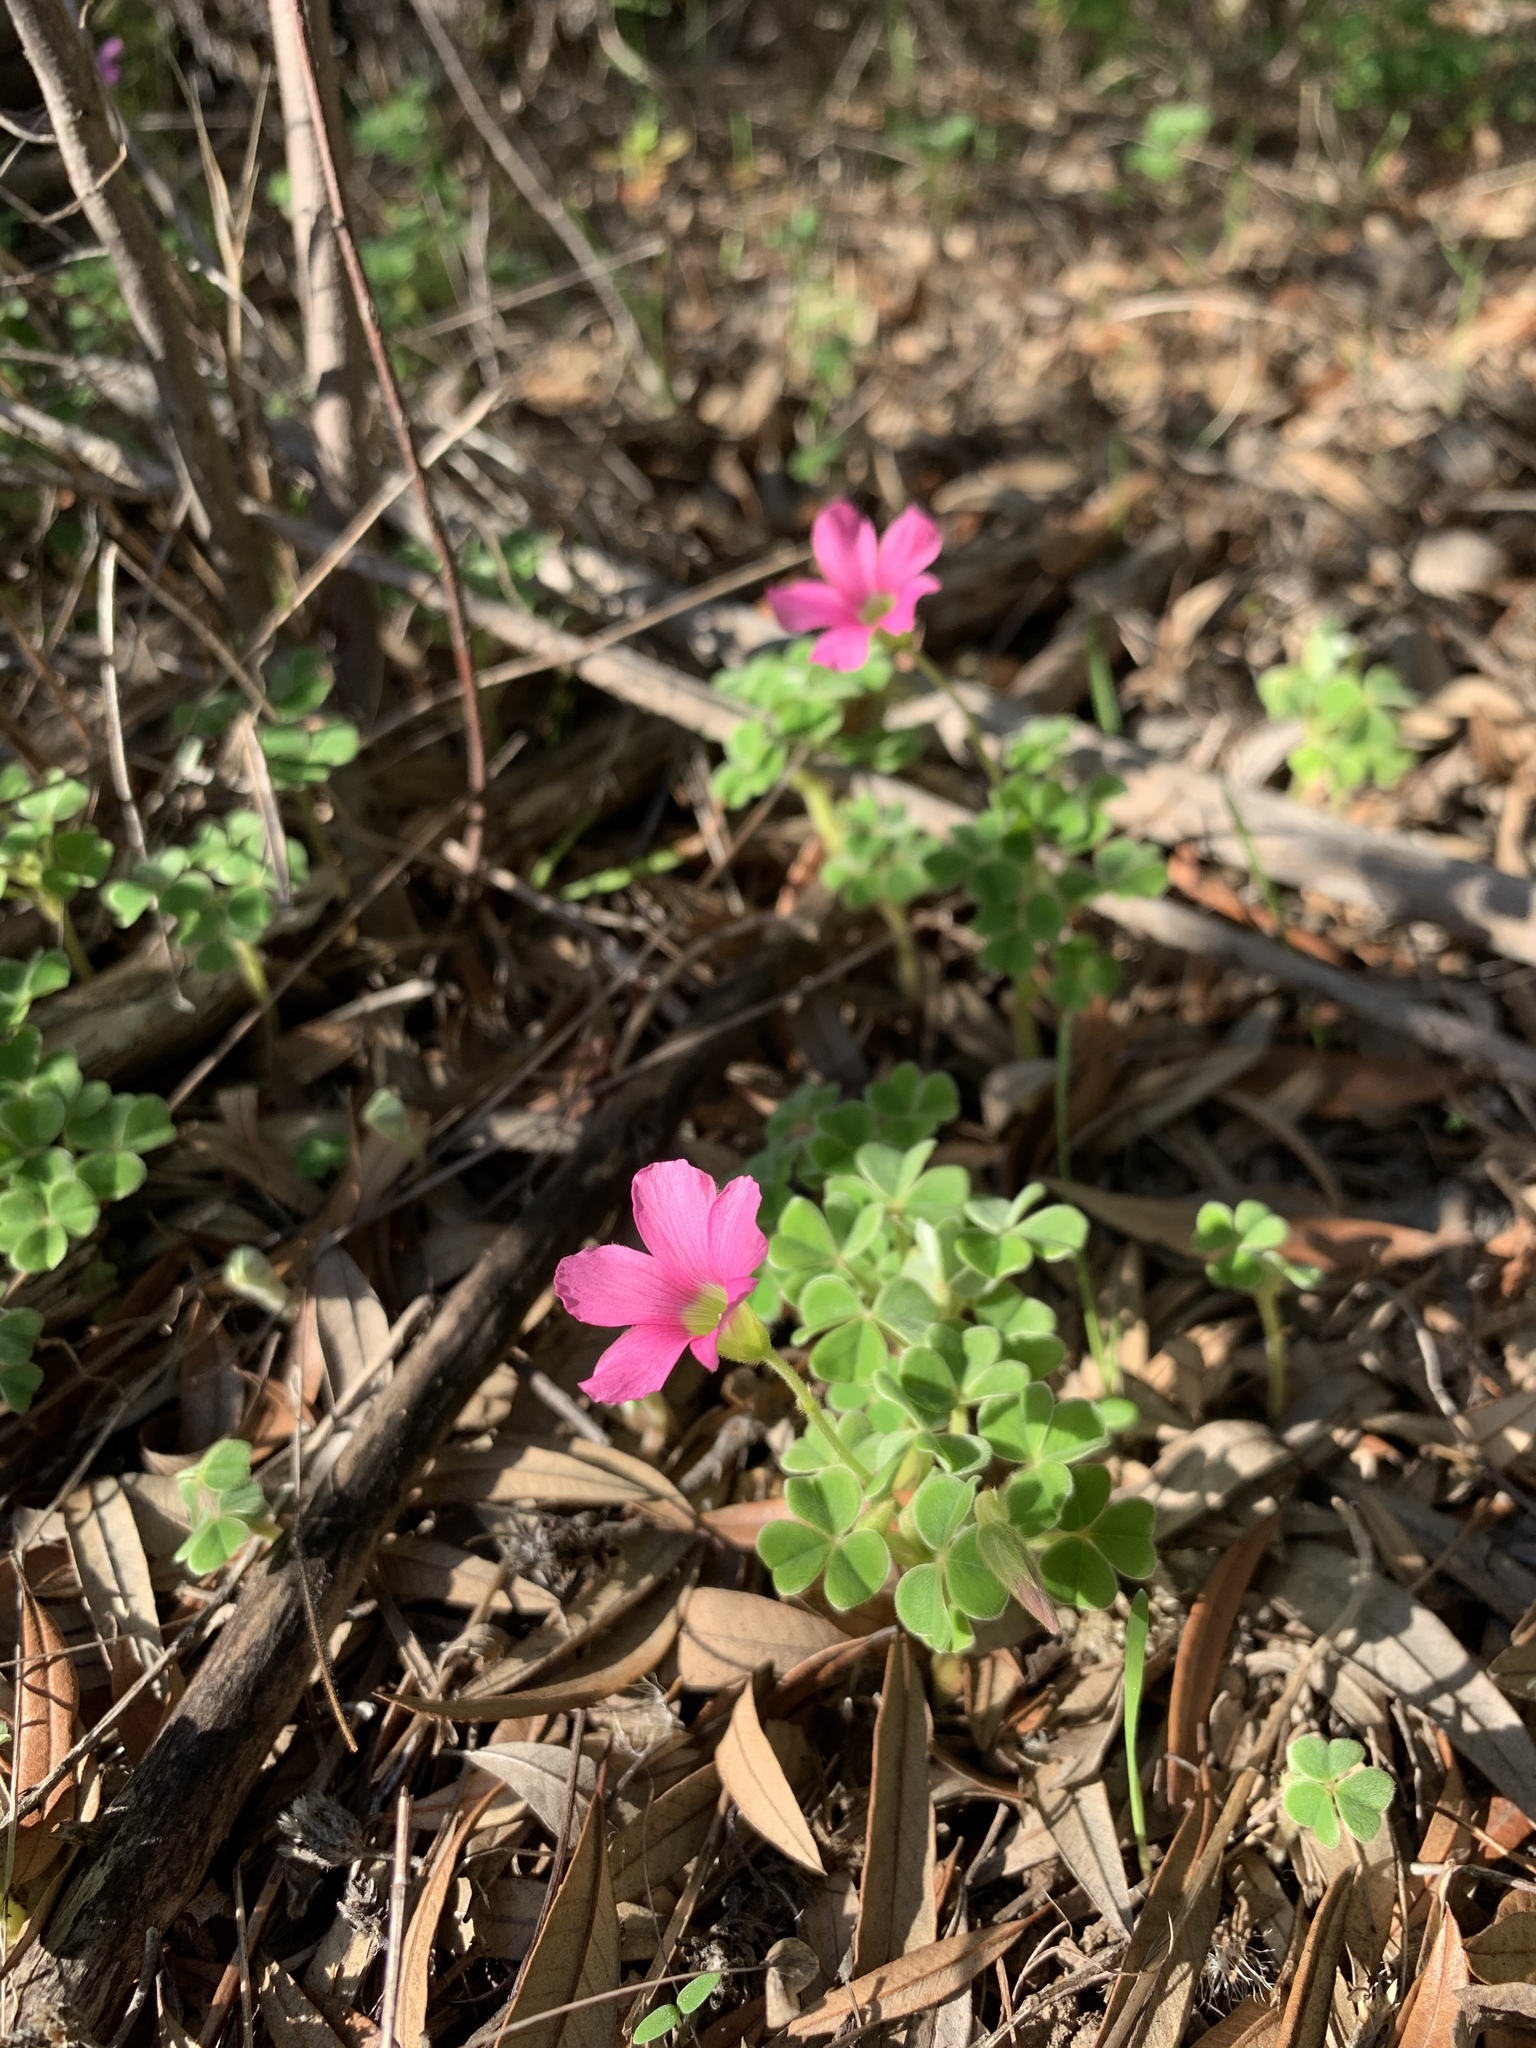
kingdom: Plantae
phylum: Tracheophyta
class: Magnoliopsida
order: Oxalidales
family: Oxalidaceae
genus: Oxalis
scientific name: Oxalis lanata
